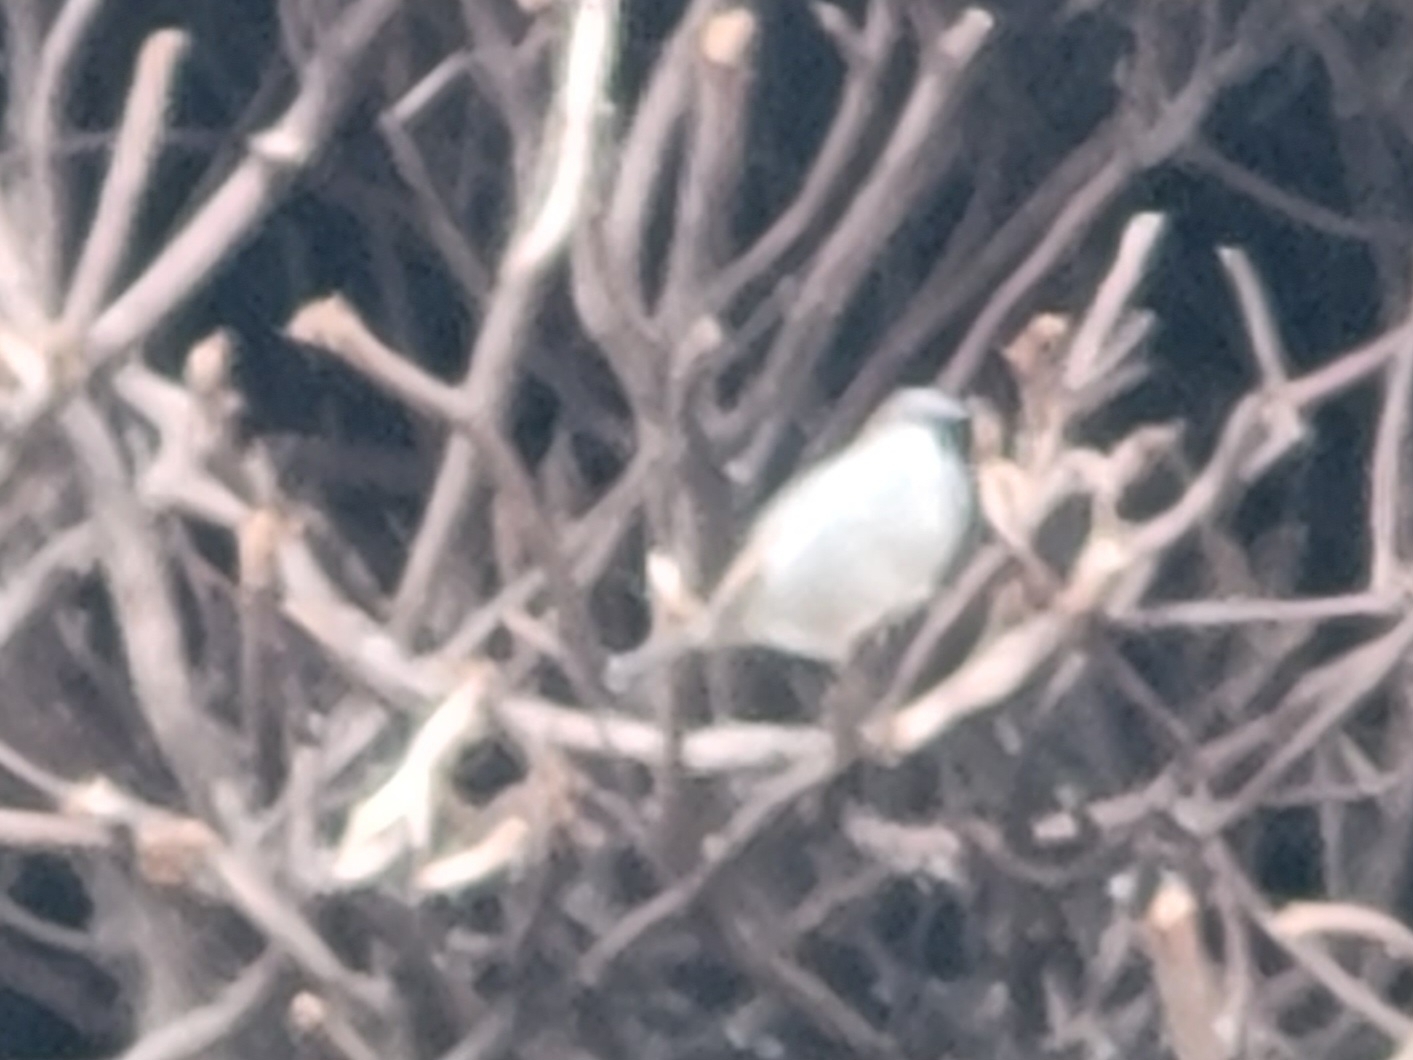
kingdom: Animalia
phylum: Chordata
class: Aves
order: Passeriformes
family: Passeridae
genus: Passer
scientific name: Passer domesticus
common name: House sparrow
